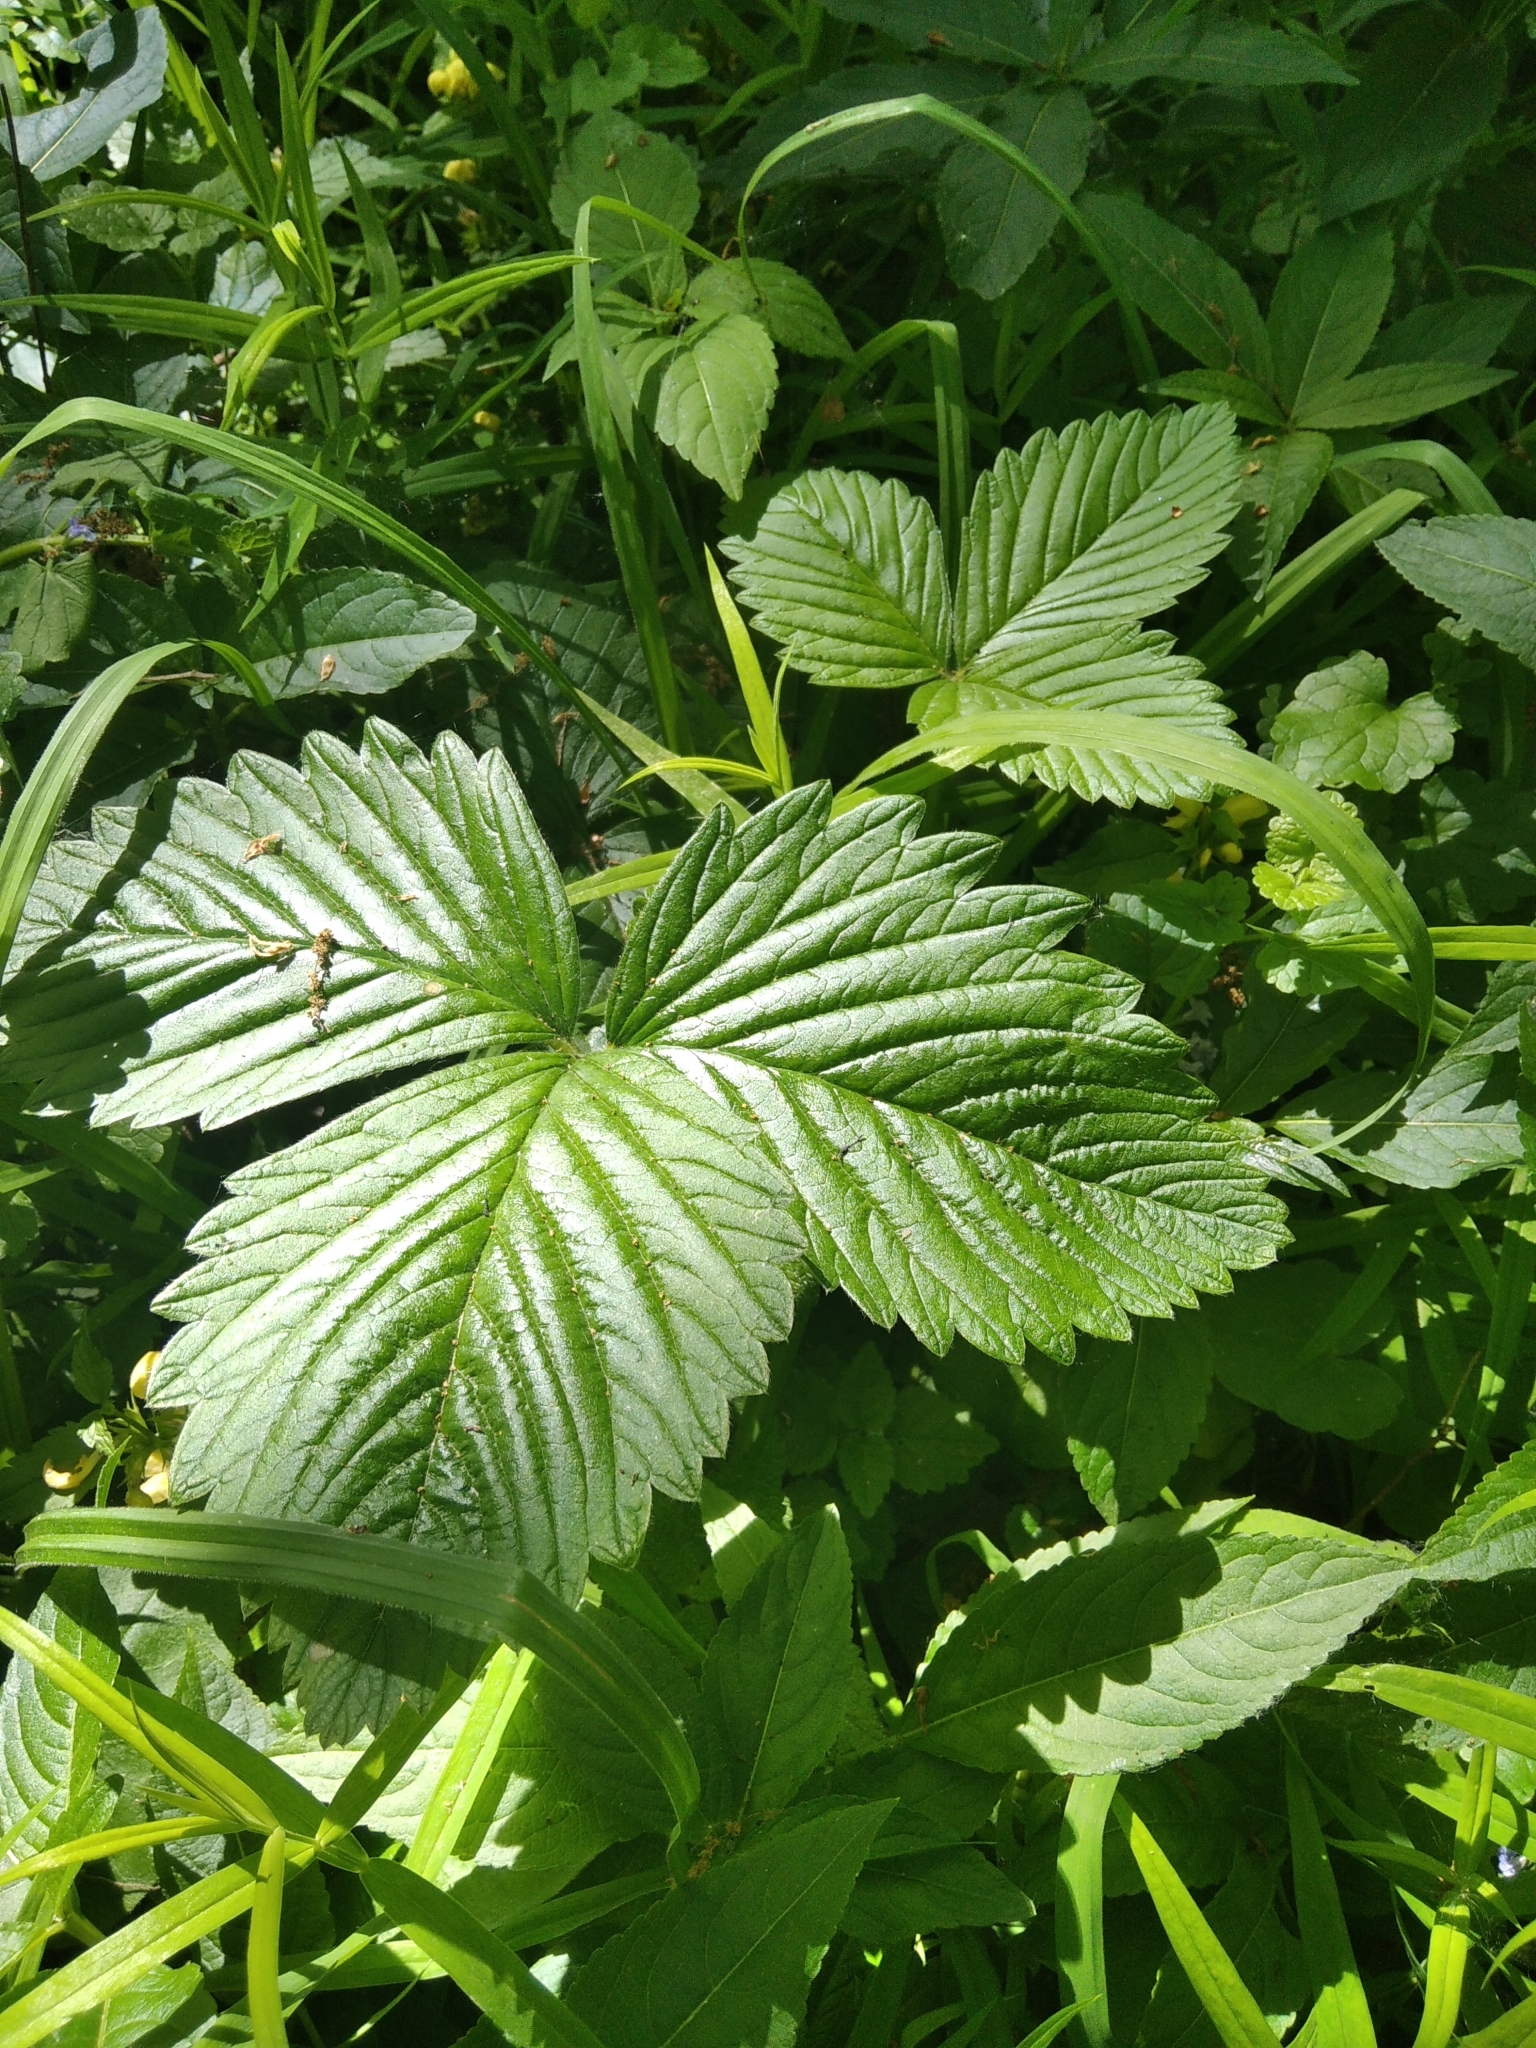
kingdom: Plantae
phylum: Tracheophyta
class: Magnoliopsida
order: Rosales
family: Rosaceae
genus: Fragaria
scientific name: Fragaria moschata
